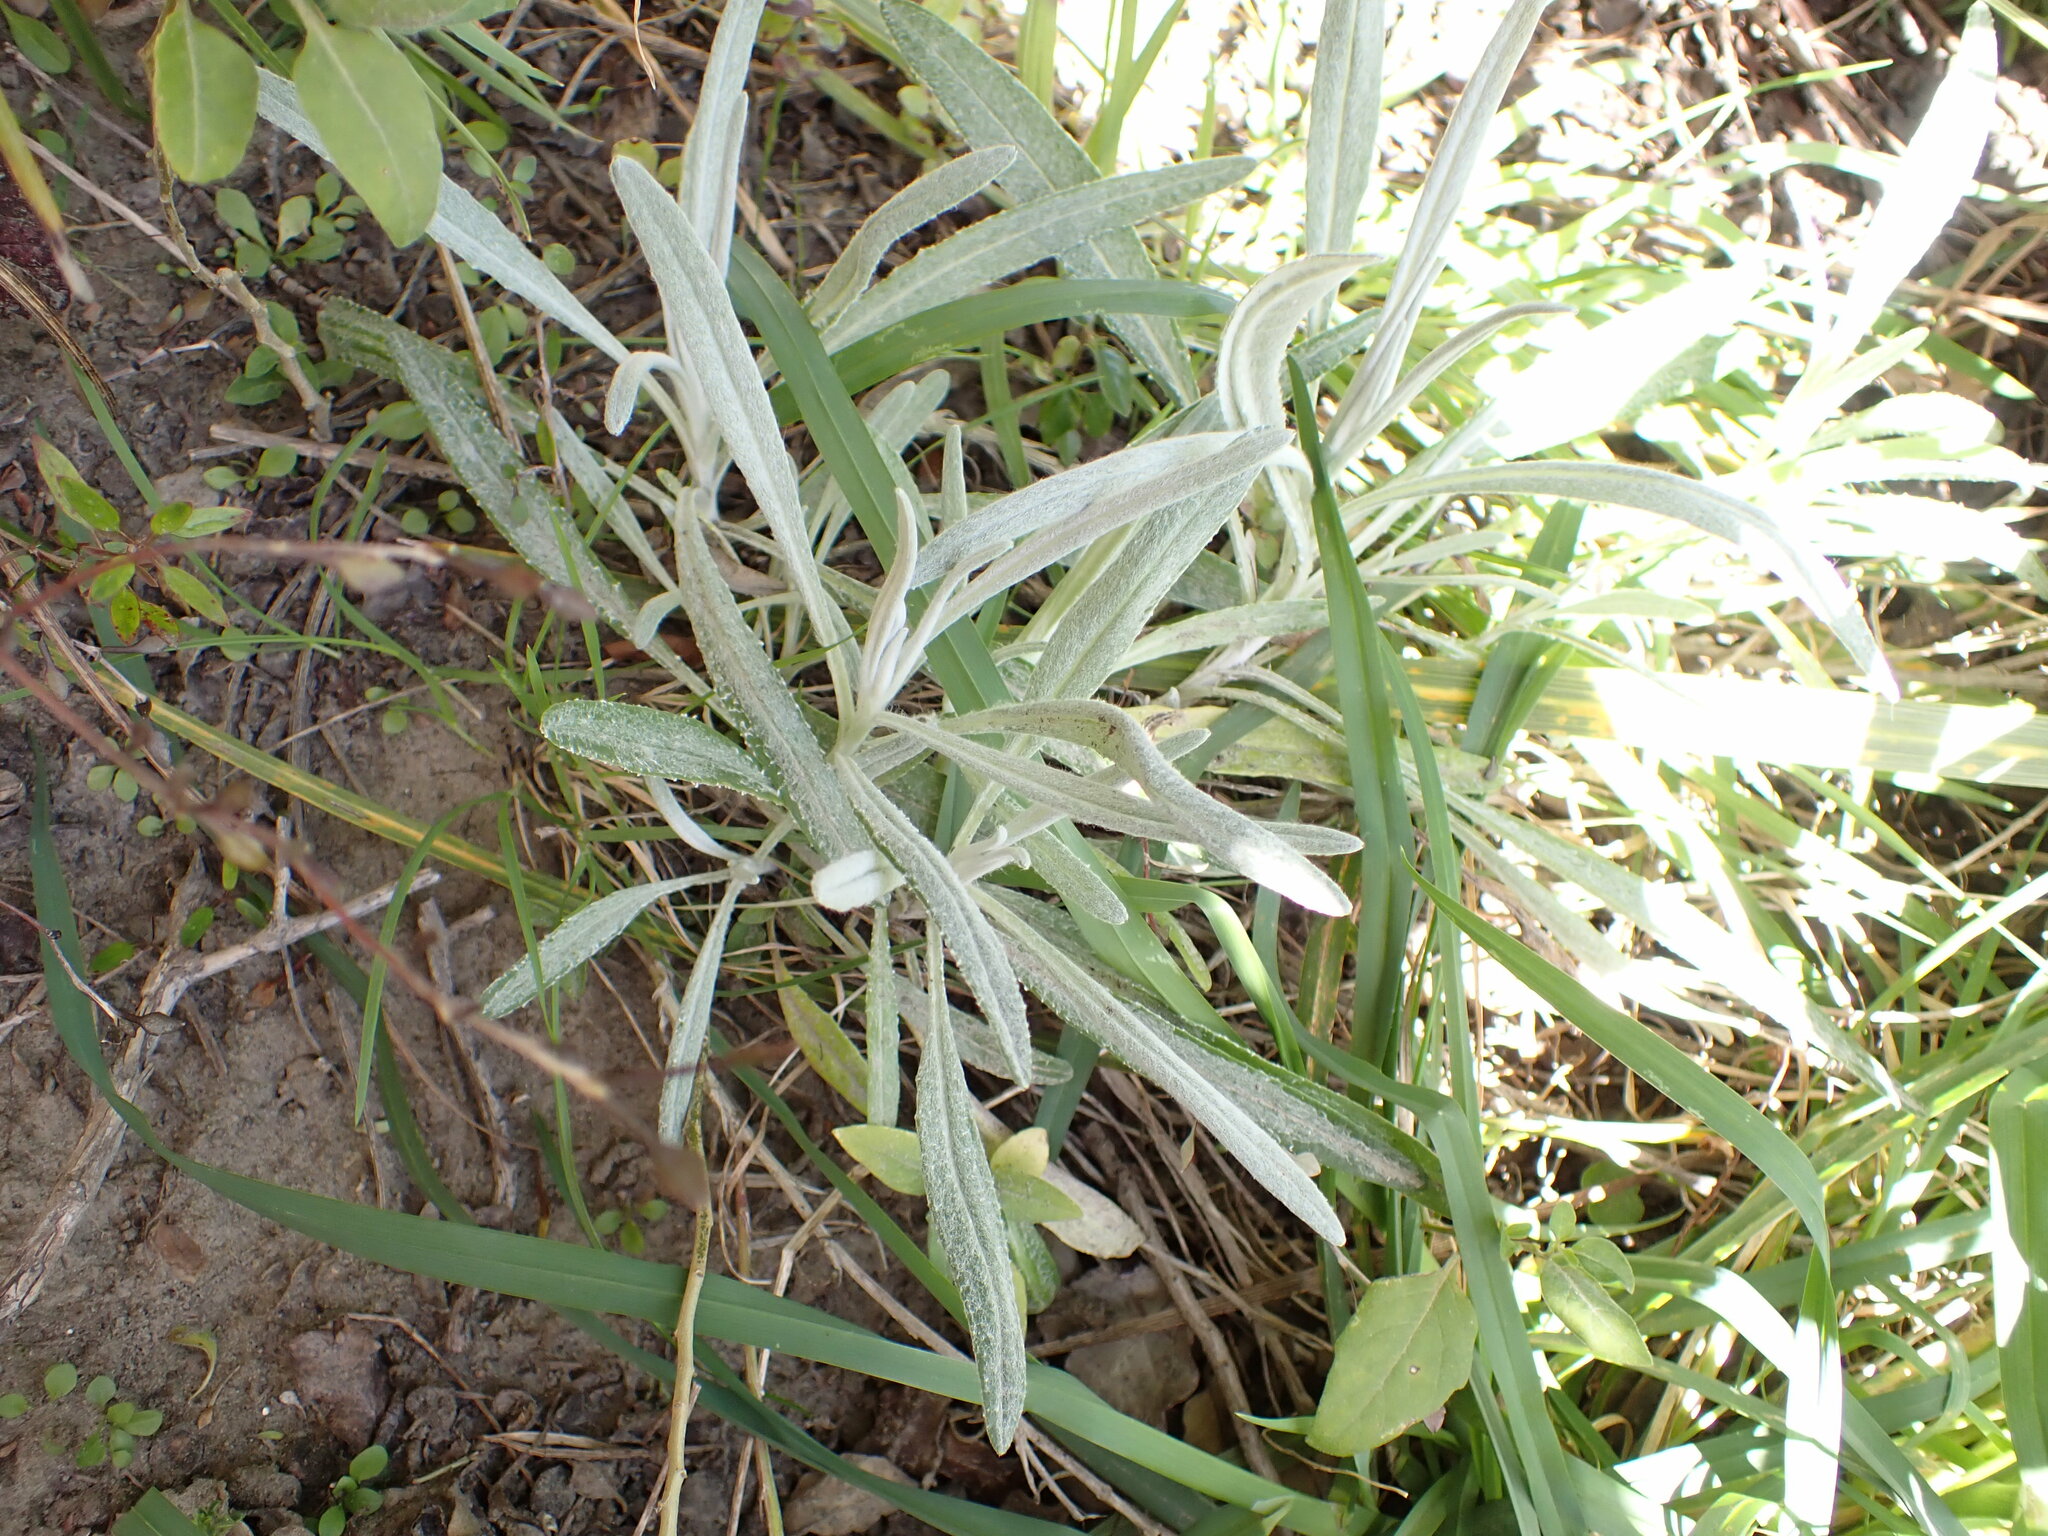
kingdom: Plantae
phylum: Tracheophyta
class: Magnoliopsida
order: Asterales
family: Asteraceae
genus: Senecio
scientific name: Senecio quadridentatus
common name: Cotton fireweed
